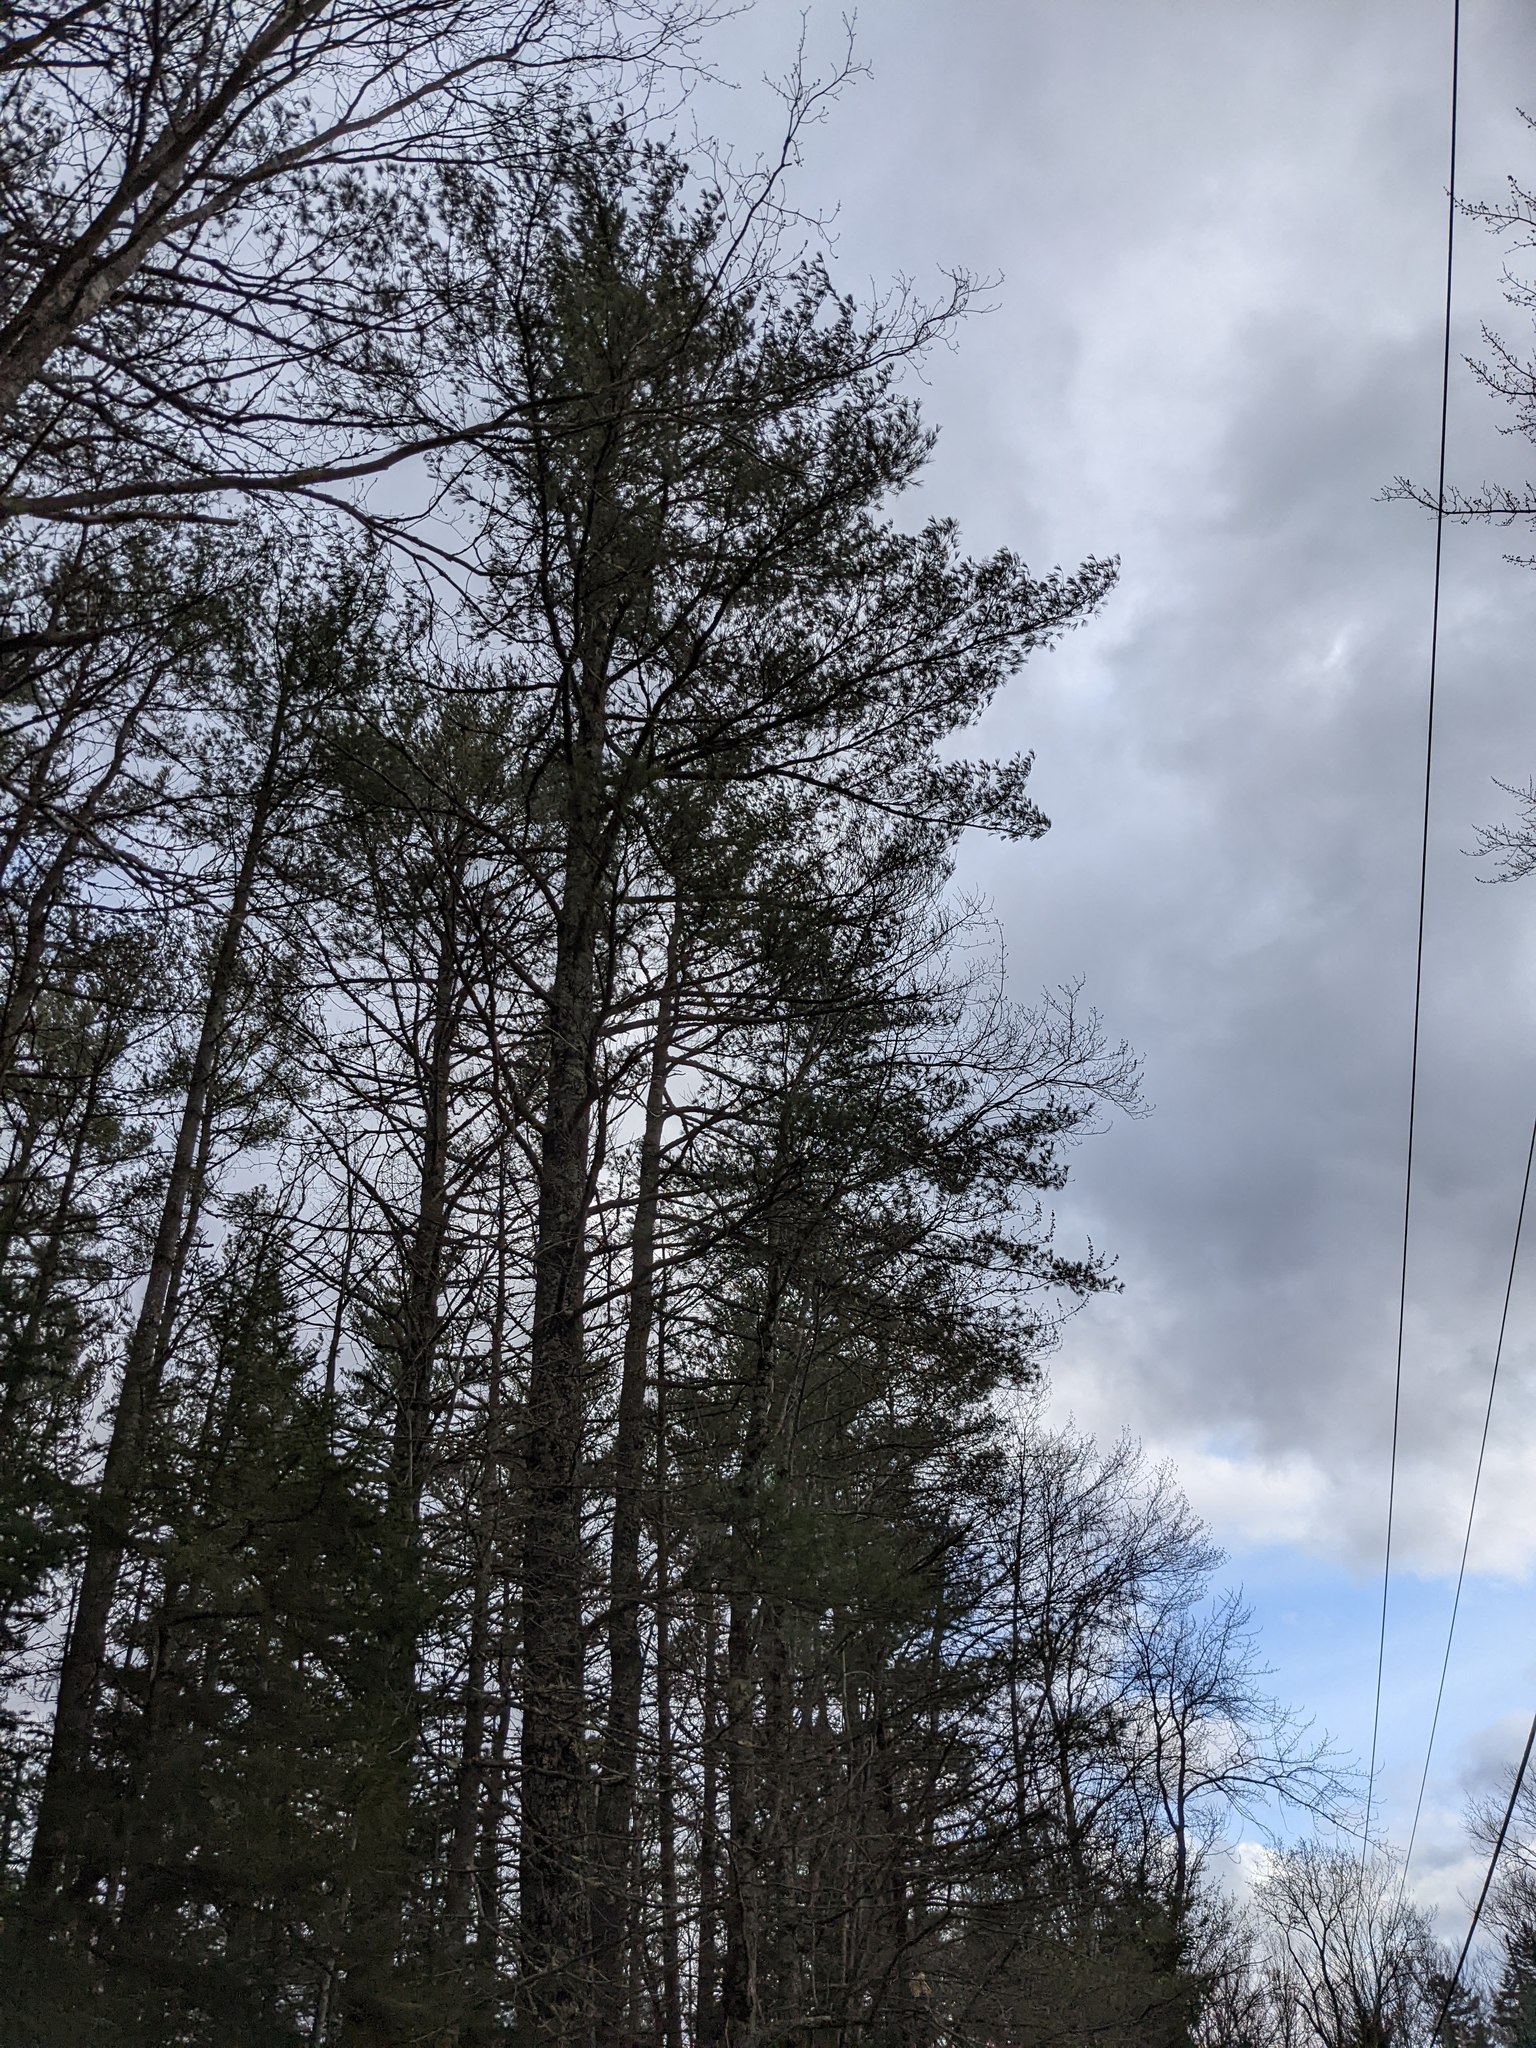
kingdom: Plantae
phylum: Tracheophyta
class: Pinopsida
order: Pinales
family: Pinaceae
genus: Pinus
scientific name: Pinus strobus
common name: Weymouth pine
